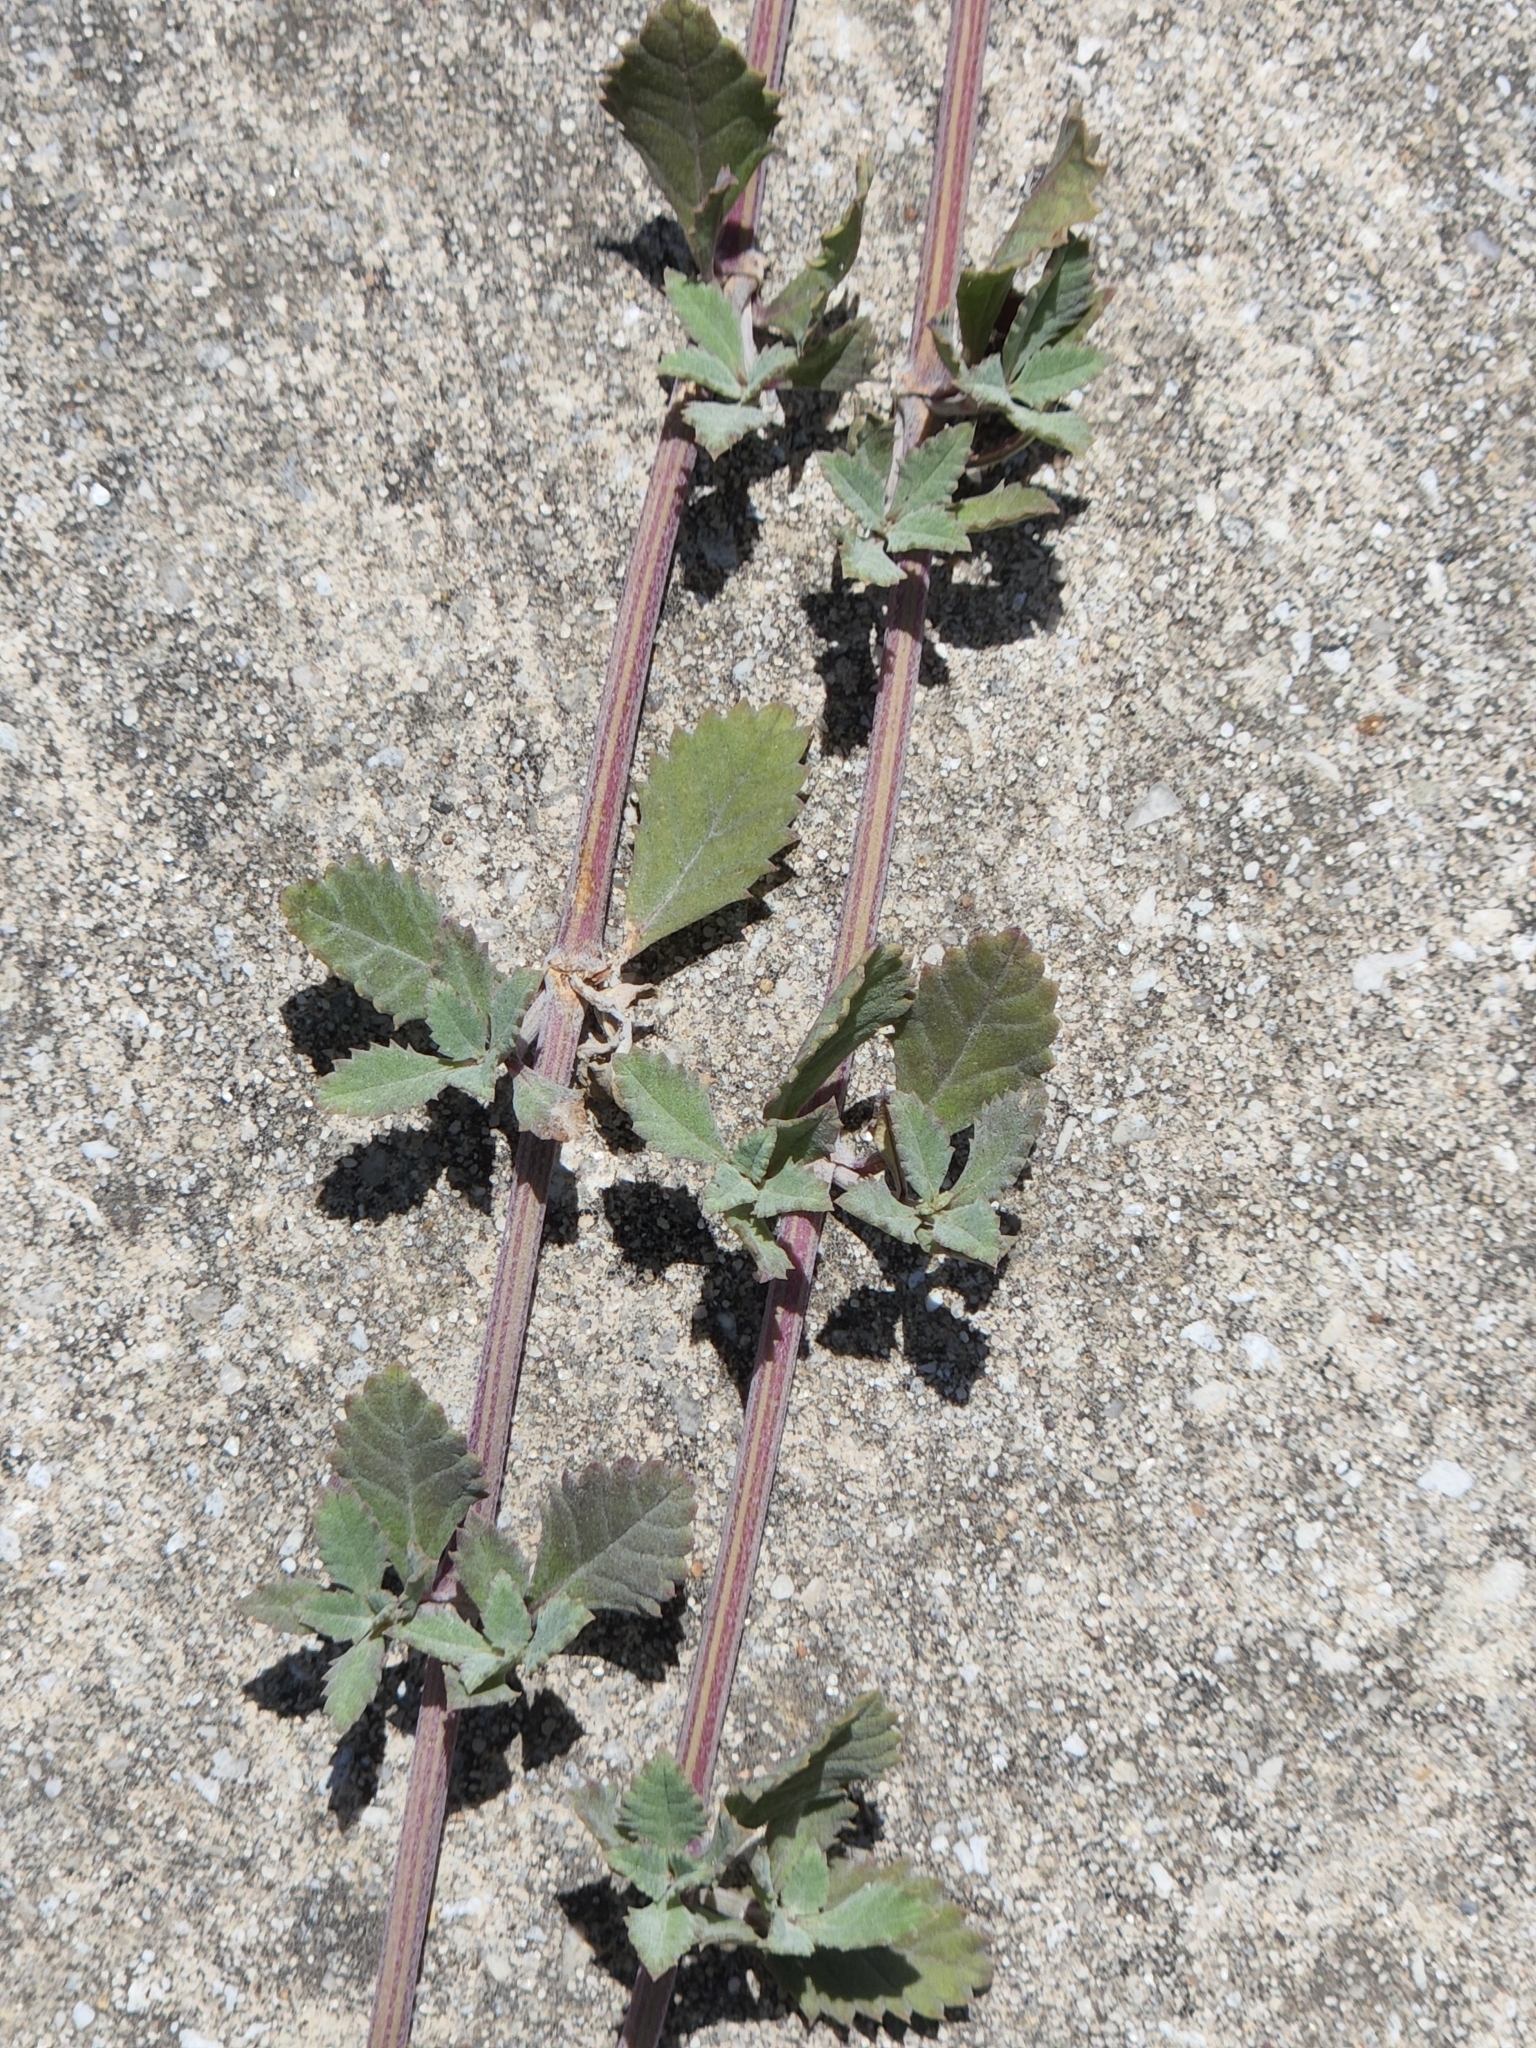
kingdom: Plantae
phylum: Tracheophyta
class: Magnoliopsida
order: Lamiales
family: Verbenaceae
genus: Phyla
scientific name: Phyla lanceolata
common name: Northern fogfruit
